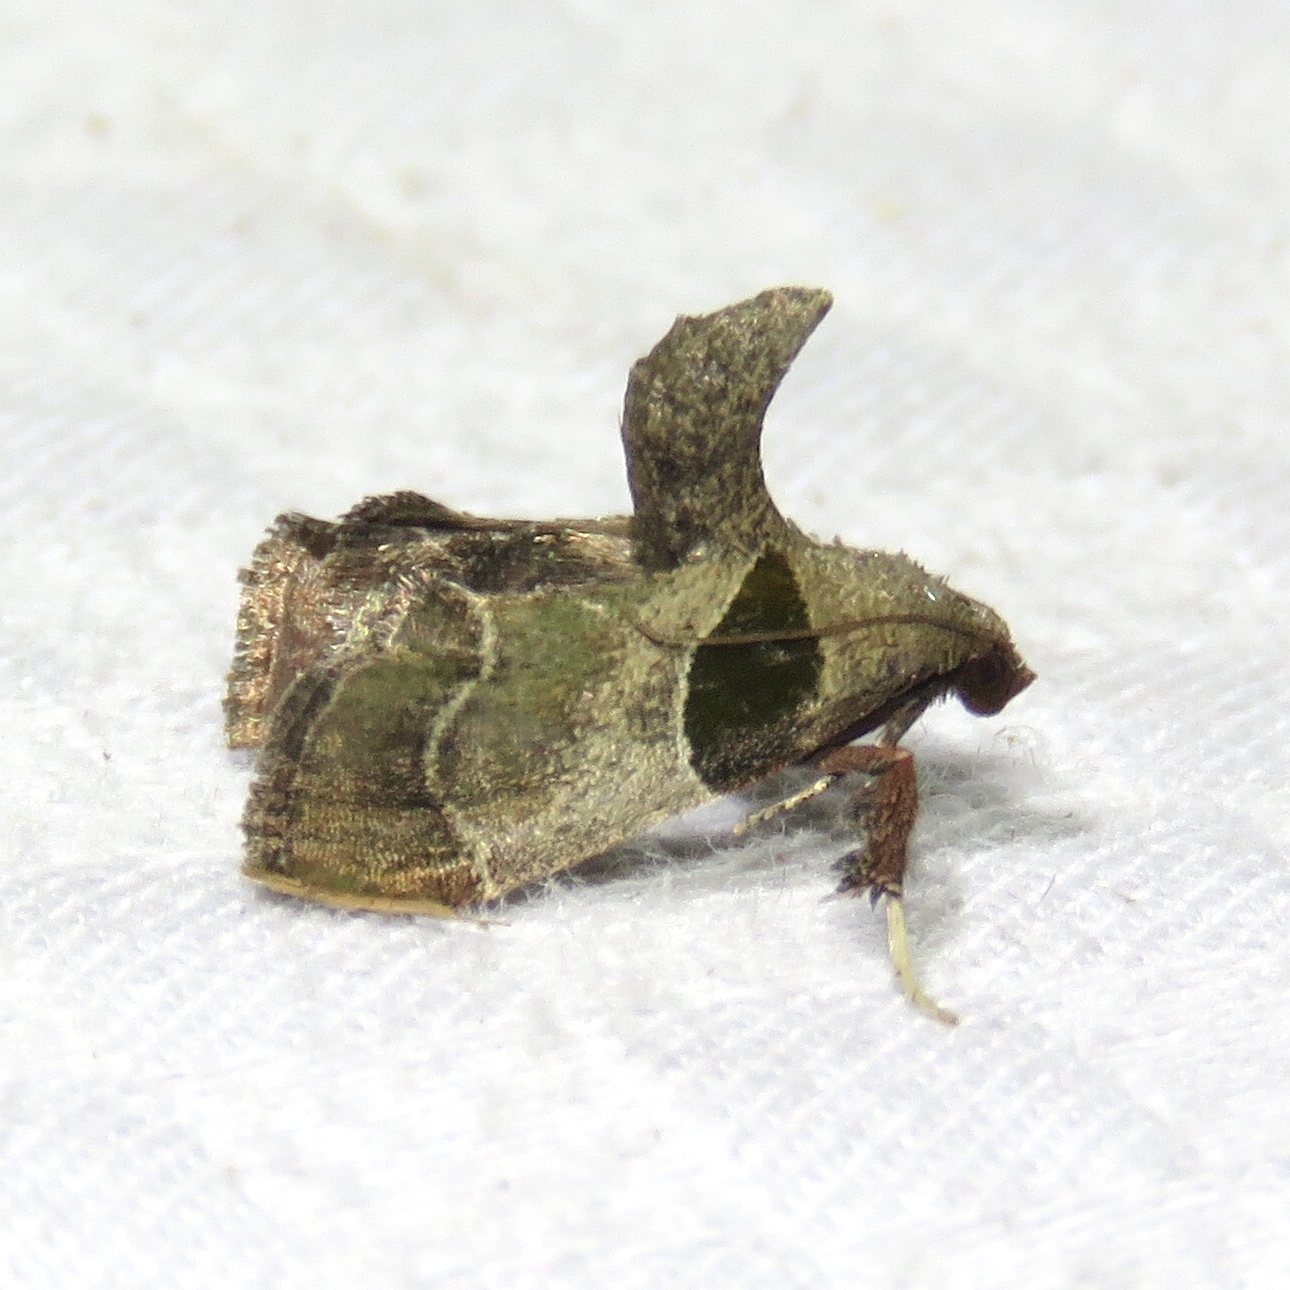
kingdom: Animalia
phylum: Arthropoda
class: Insecta
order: Lepidoptera
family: Pyralidae
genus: Tosale
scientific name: Tosale oviplagalis
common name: Dimorphic tosale moth
